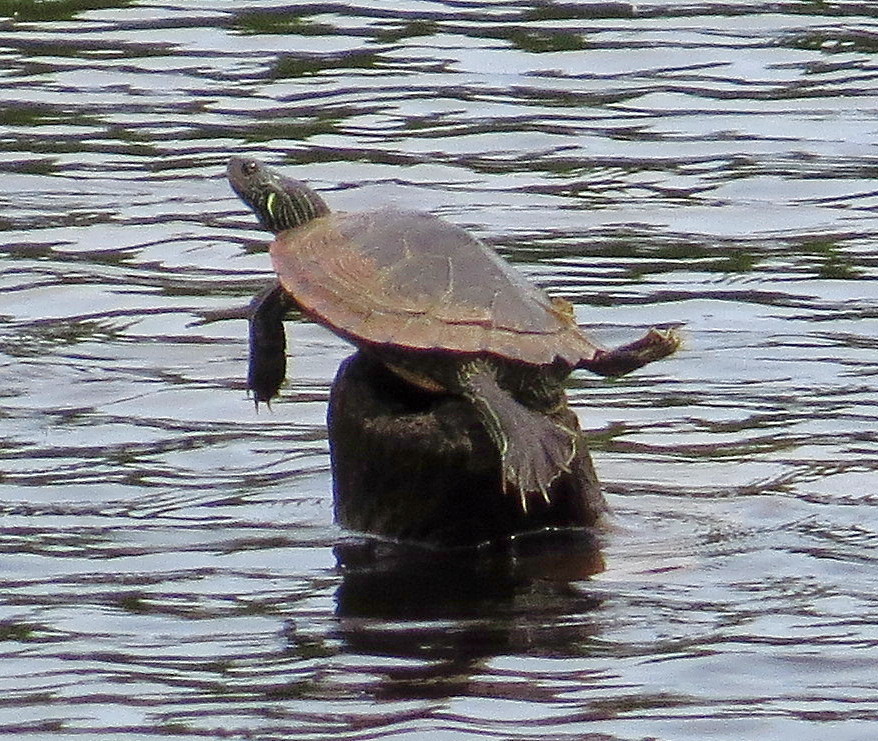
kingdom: Animalia
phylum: Chordata
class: Testudines
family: Emydidae
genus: Graptemys
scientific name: Graptemys geographica
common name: Common map turtle
